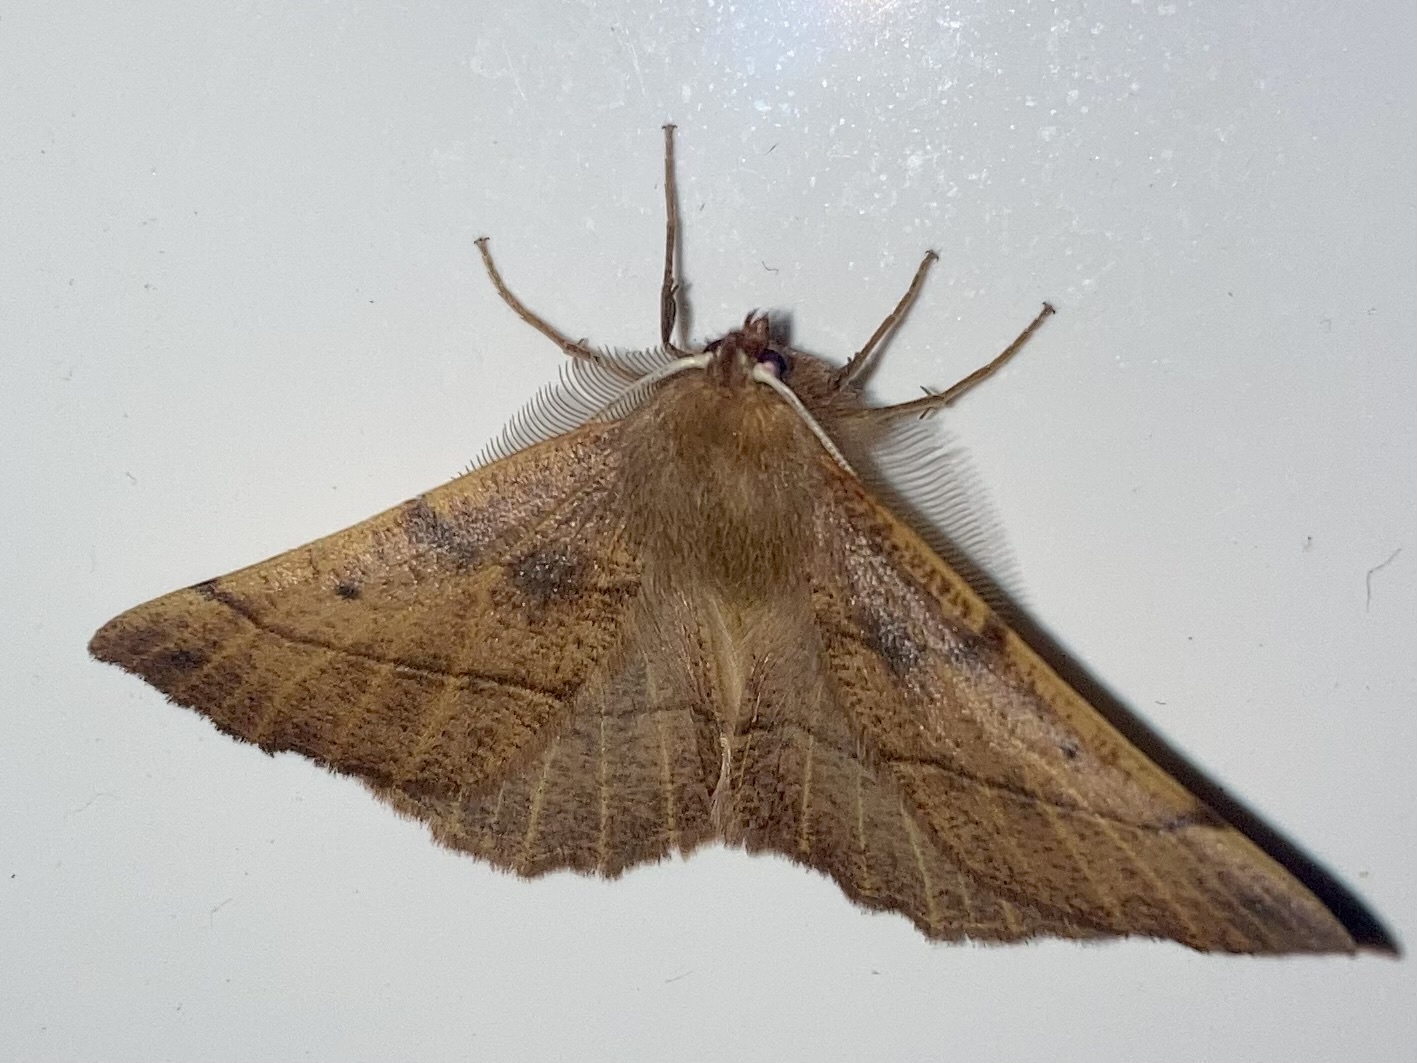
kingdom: Animalia
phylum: Arthropoda
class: Insecta
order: Lepidoptera
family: Geometridae
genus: Colotois
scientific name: Colotois pennaria
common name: Feathered thorn
